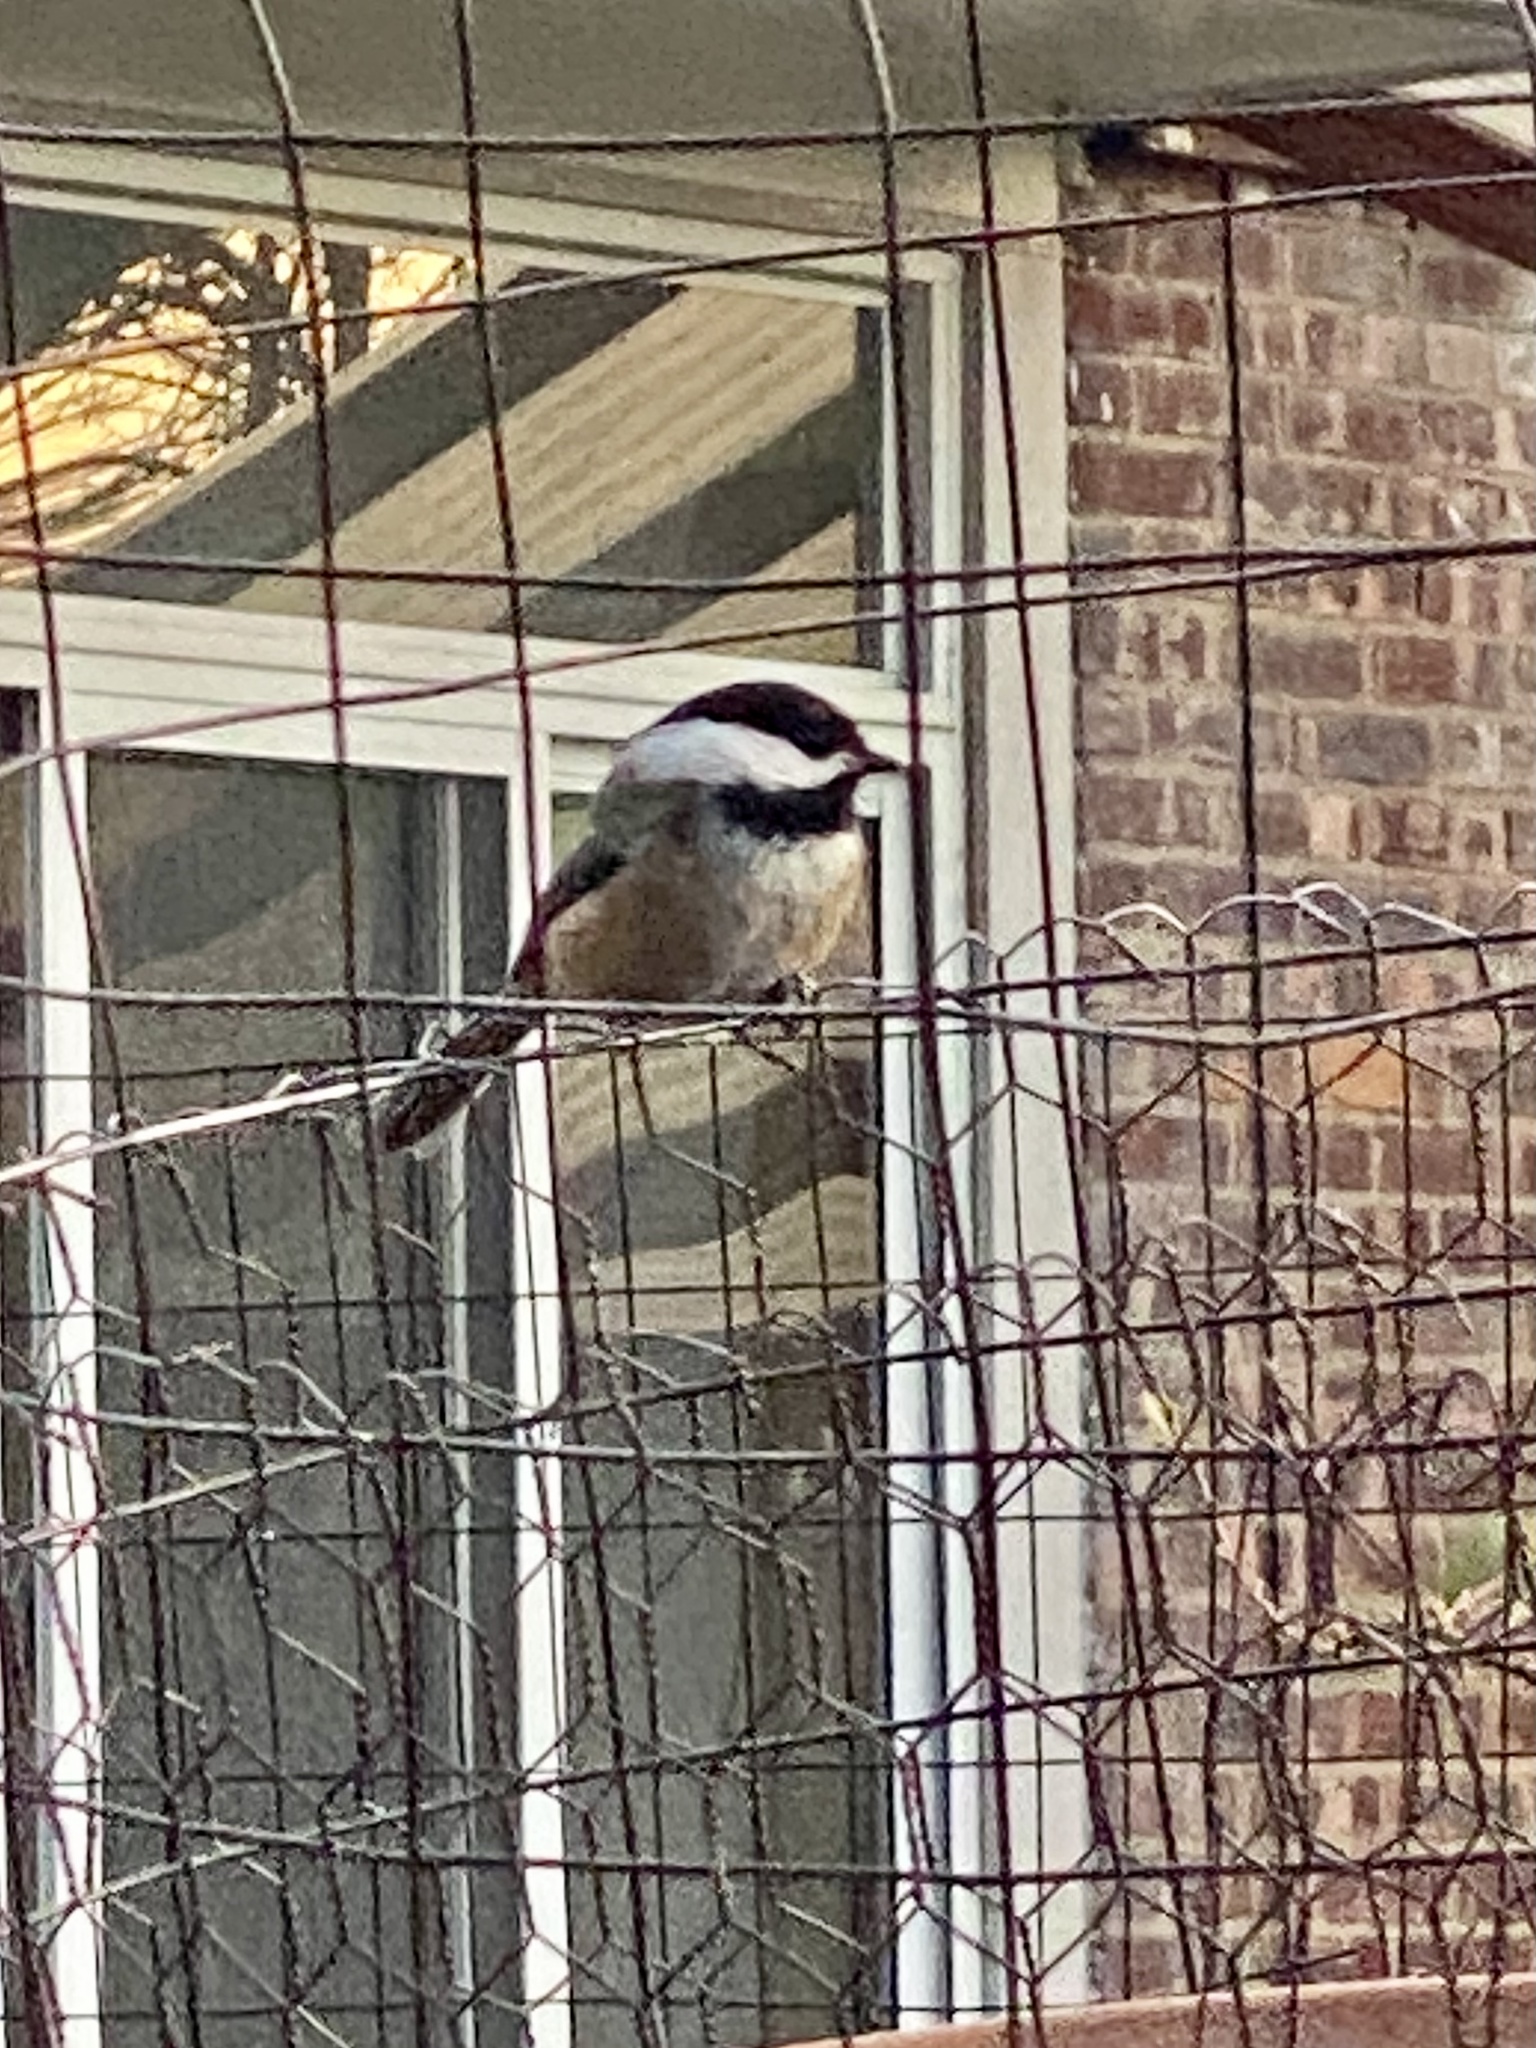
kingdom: Animalia
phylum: Chordata
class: Aves
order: Passeriformes
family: Paridae
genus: Poecile
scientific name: Poecile atricapillus
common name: Black-capped chickadee
